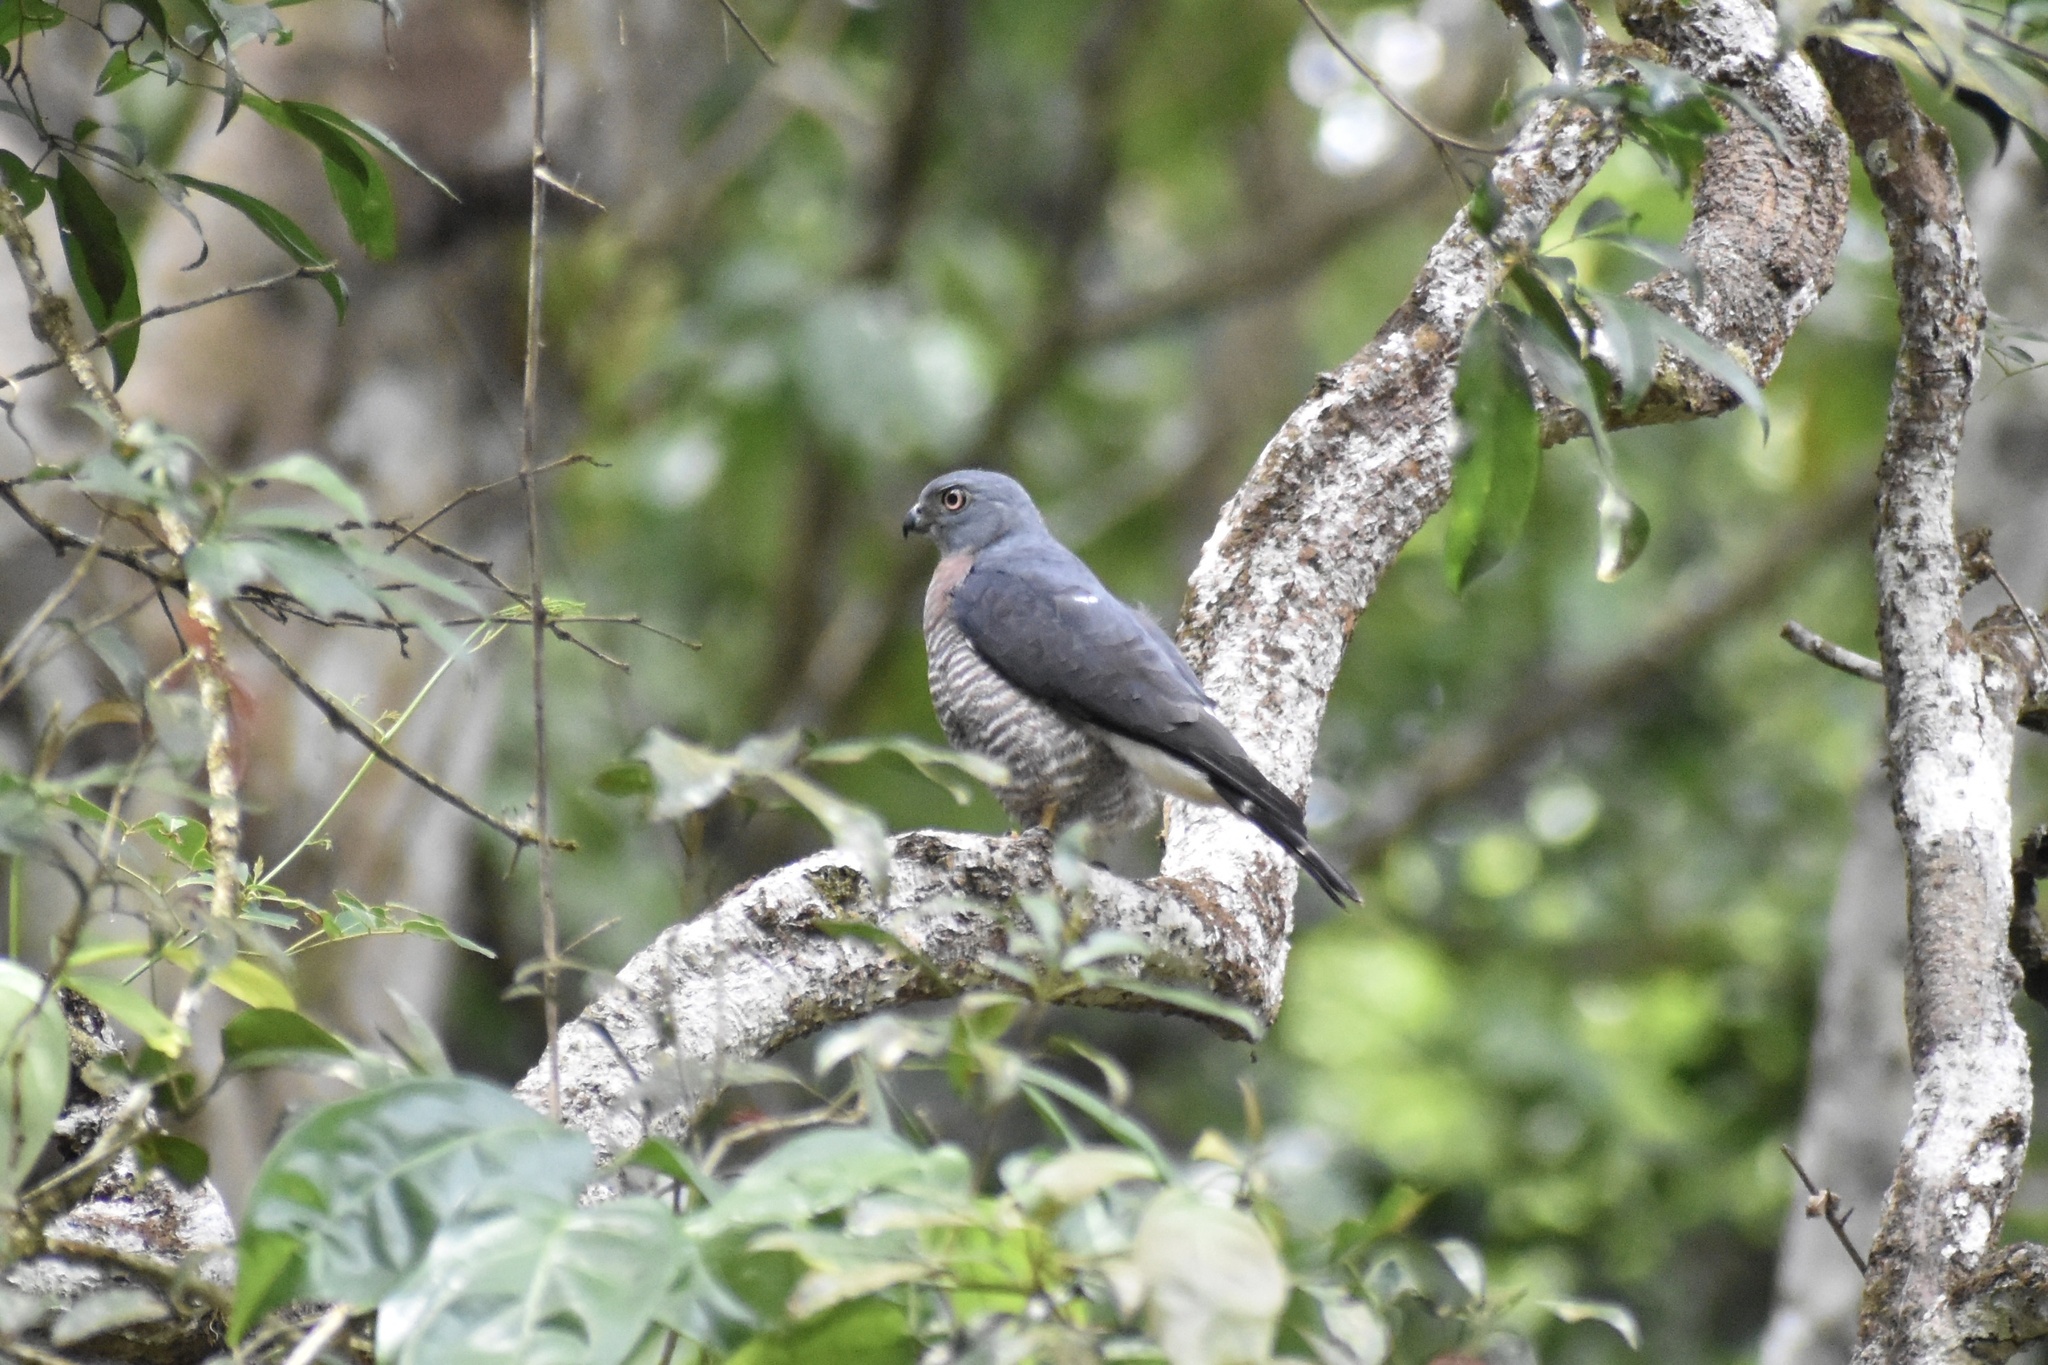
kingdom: Animalia
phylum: Chordata
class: Aves
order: Accipitriformes
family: Accipitridae
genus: Harpagus
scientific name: Harpagus bidentatus
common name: Double-toothed kite
